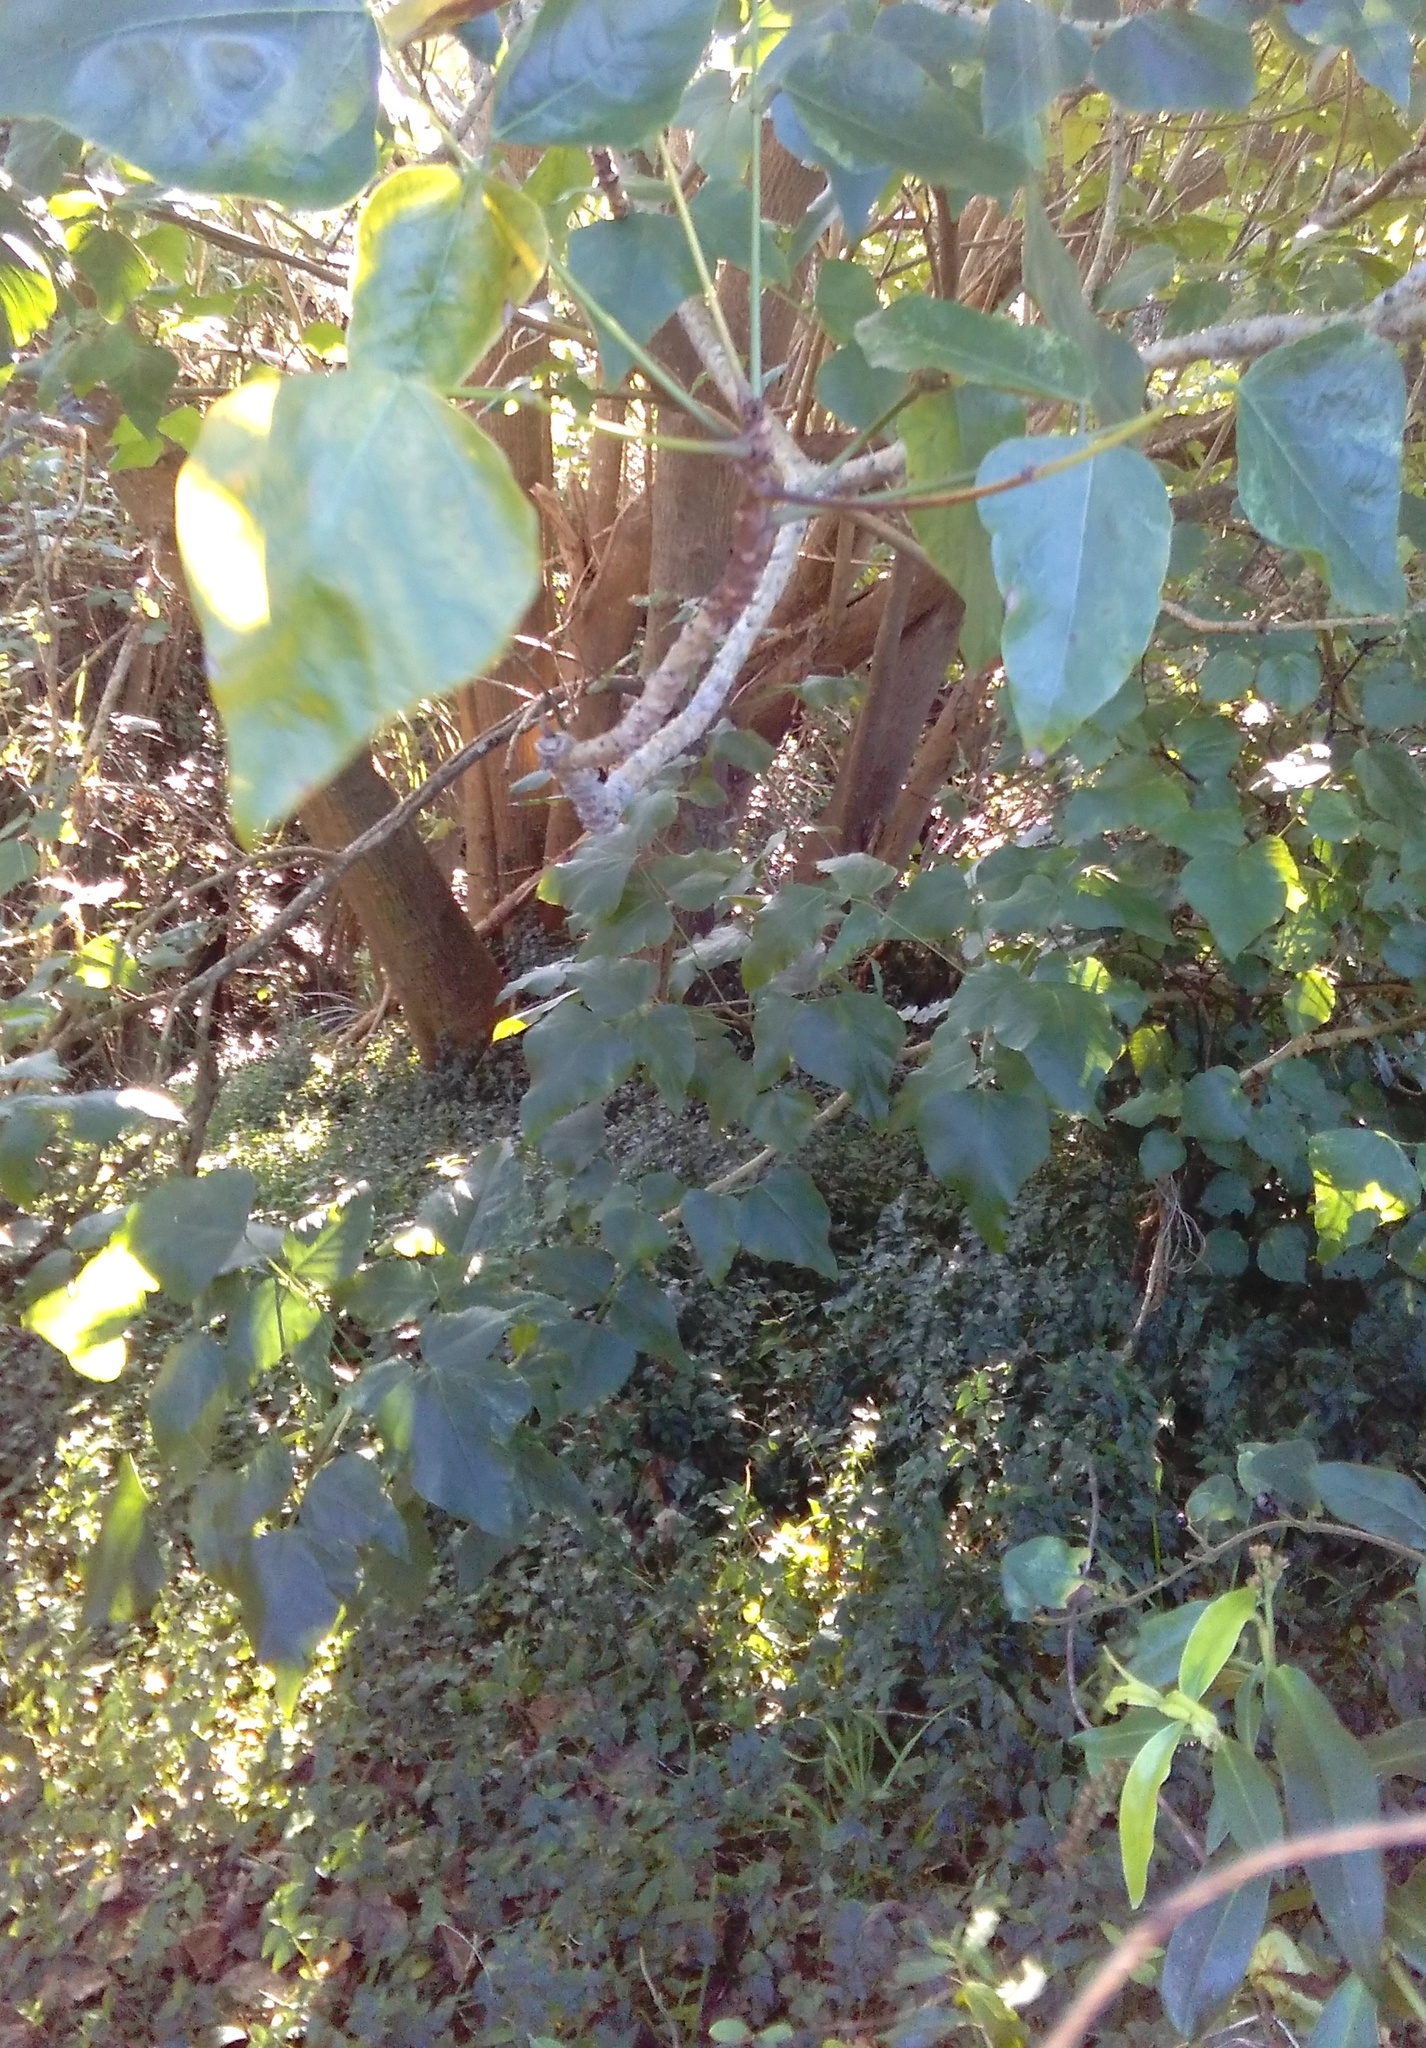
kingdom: Plantae
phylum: Tracheophyta
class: Liliopsida
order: Commelinales
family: Commelinaceae
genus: Tradescantia
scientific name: Tradescantia fluminensis
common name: Wandering-jew
